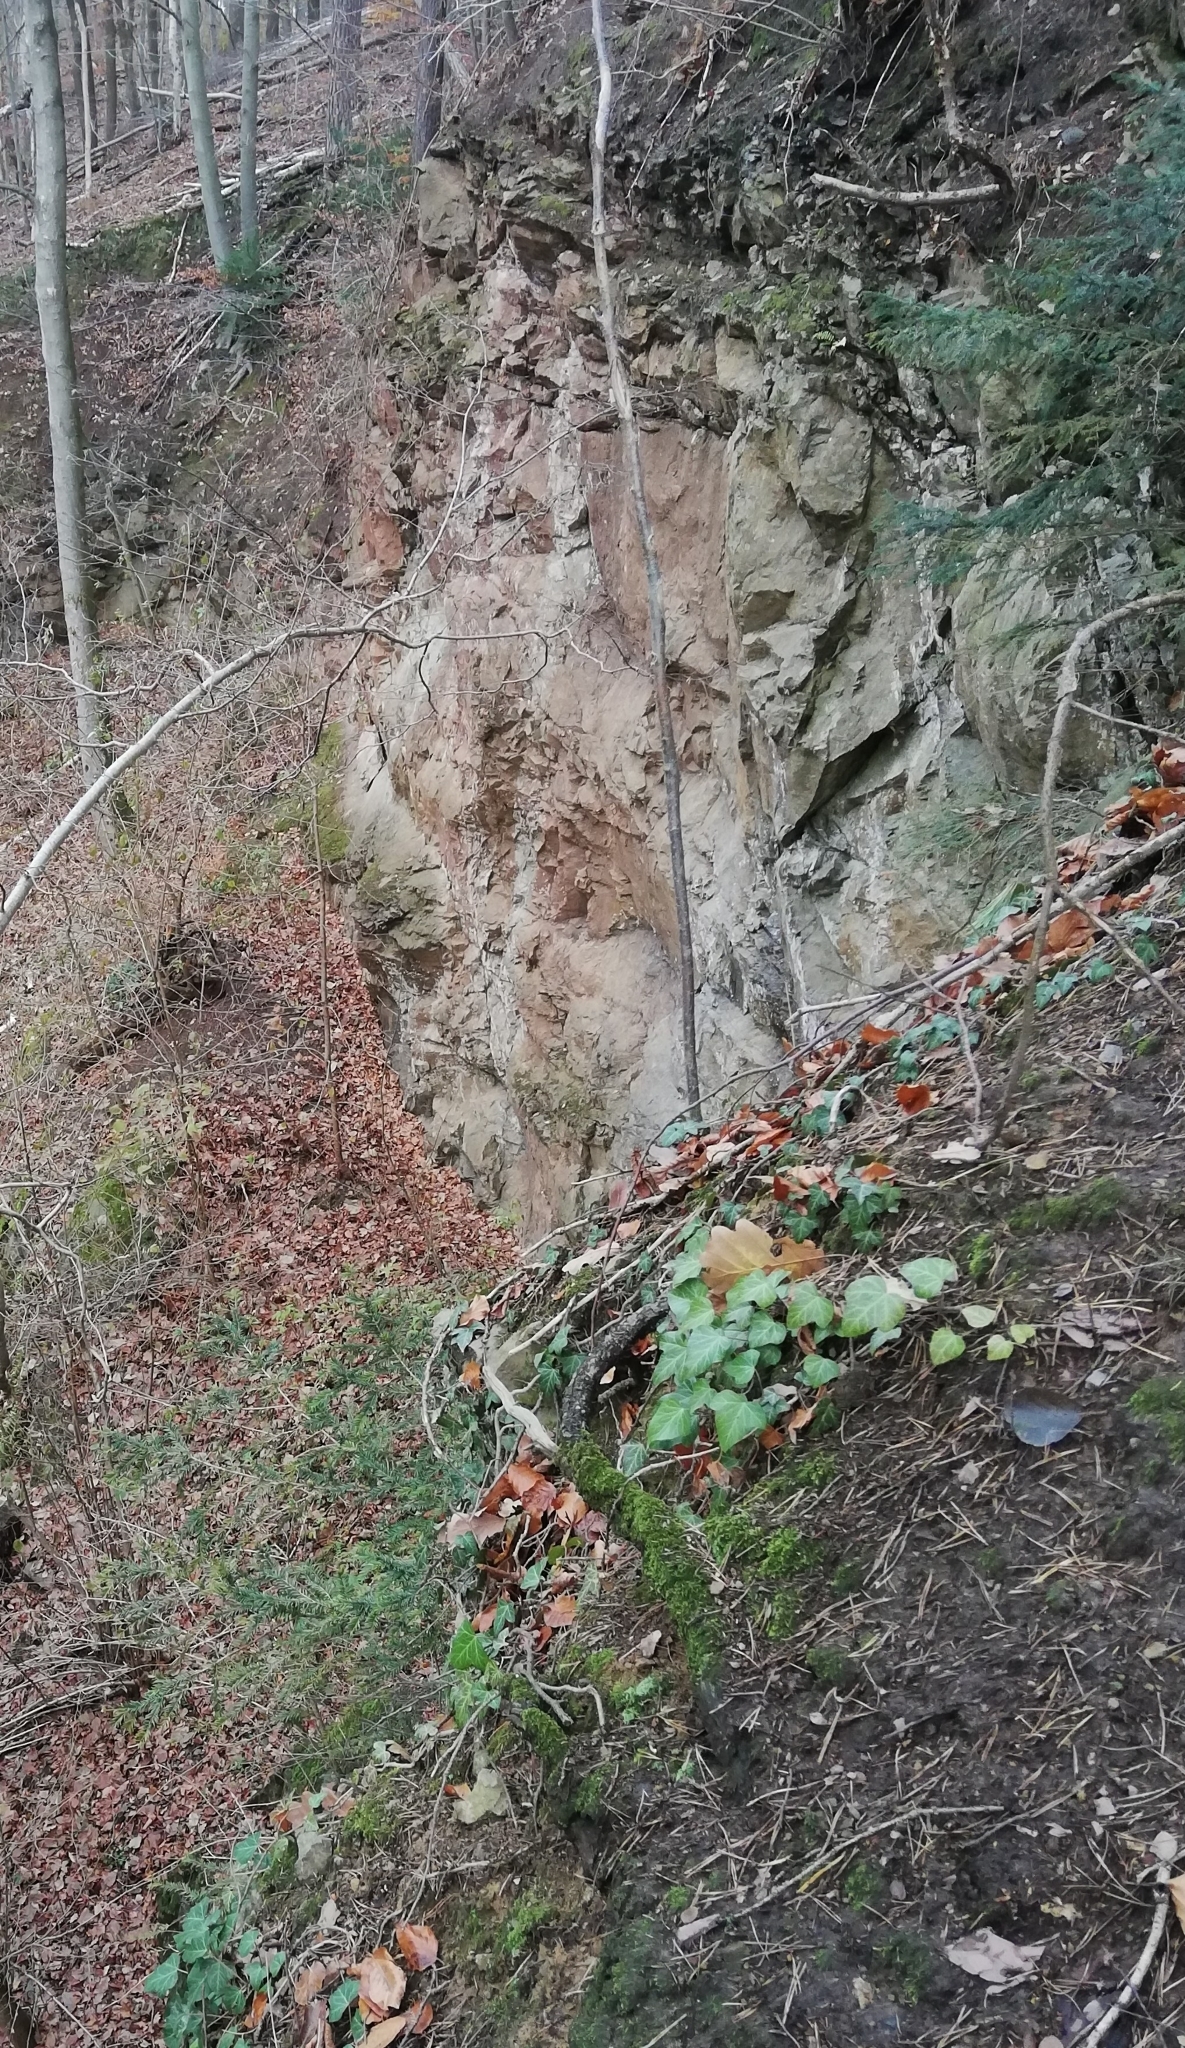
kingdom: Plantae
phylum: Tracheophyta
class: Pinopsida
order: Pinales
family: Taxaceae
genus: Taxus
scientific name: Taxus baccata
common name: Yew
